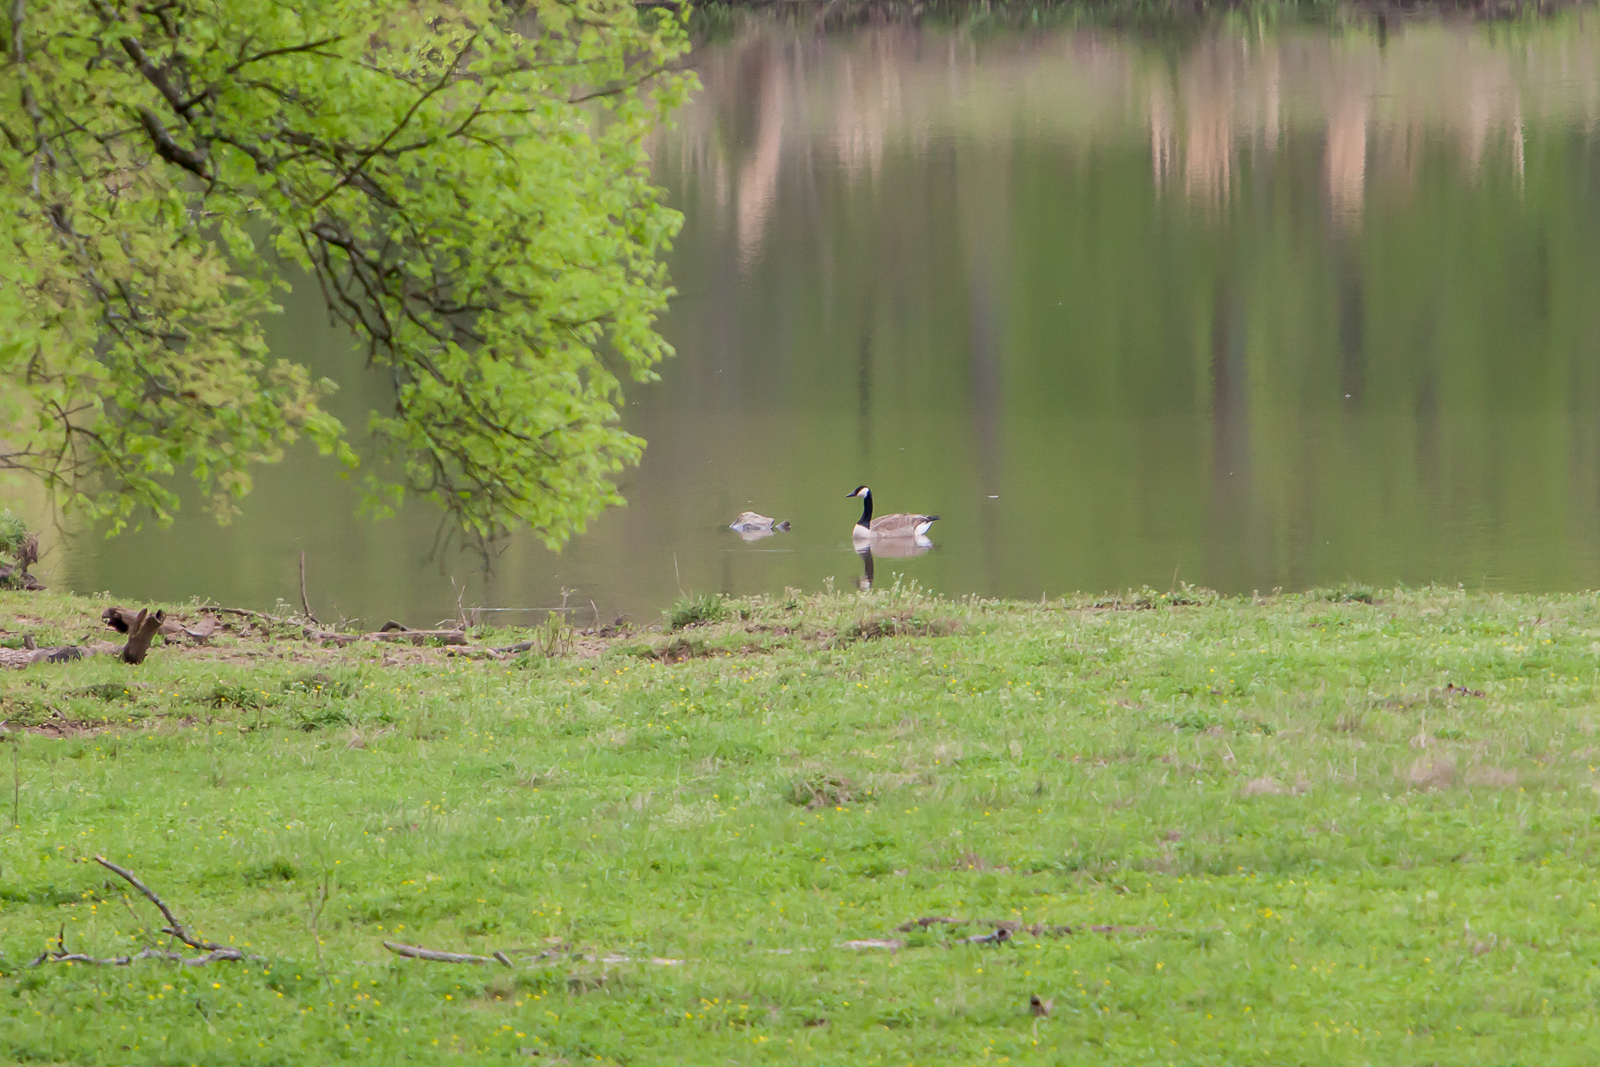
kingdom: Animalia
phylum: Chordata
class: Aves
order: Anseriformes
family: Anatidae
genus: Branta
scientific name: Branta canadensis
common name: Canada goose
